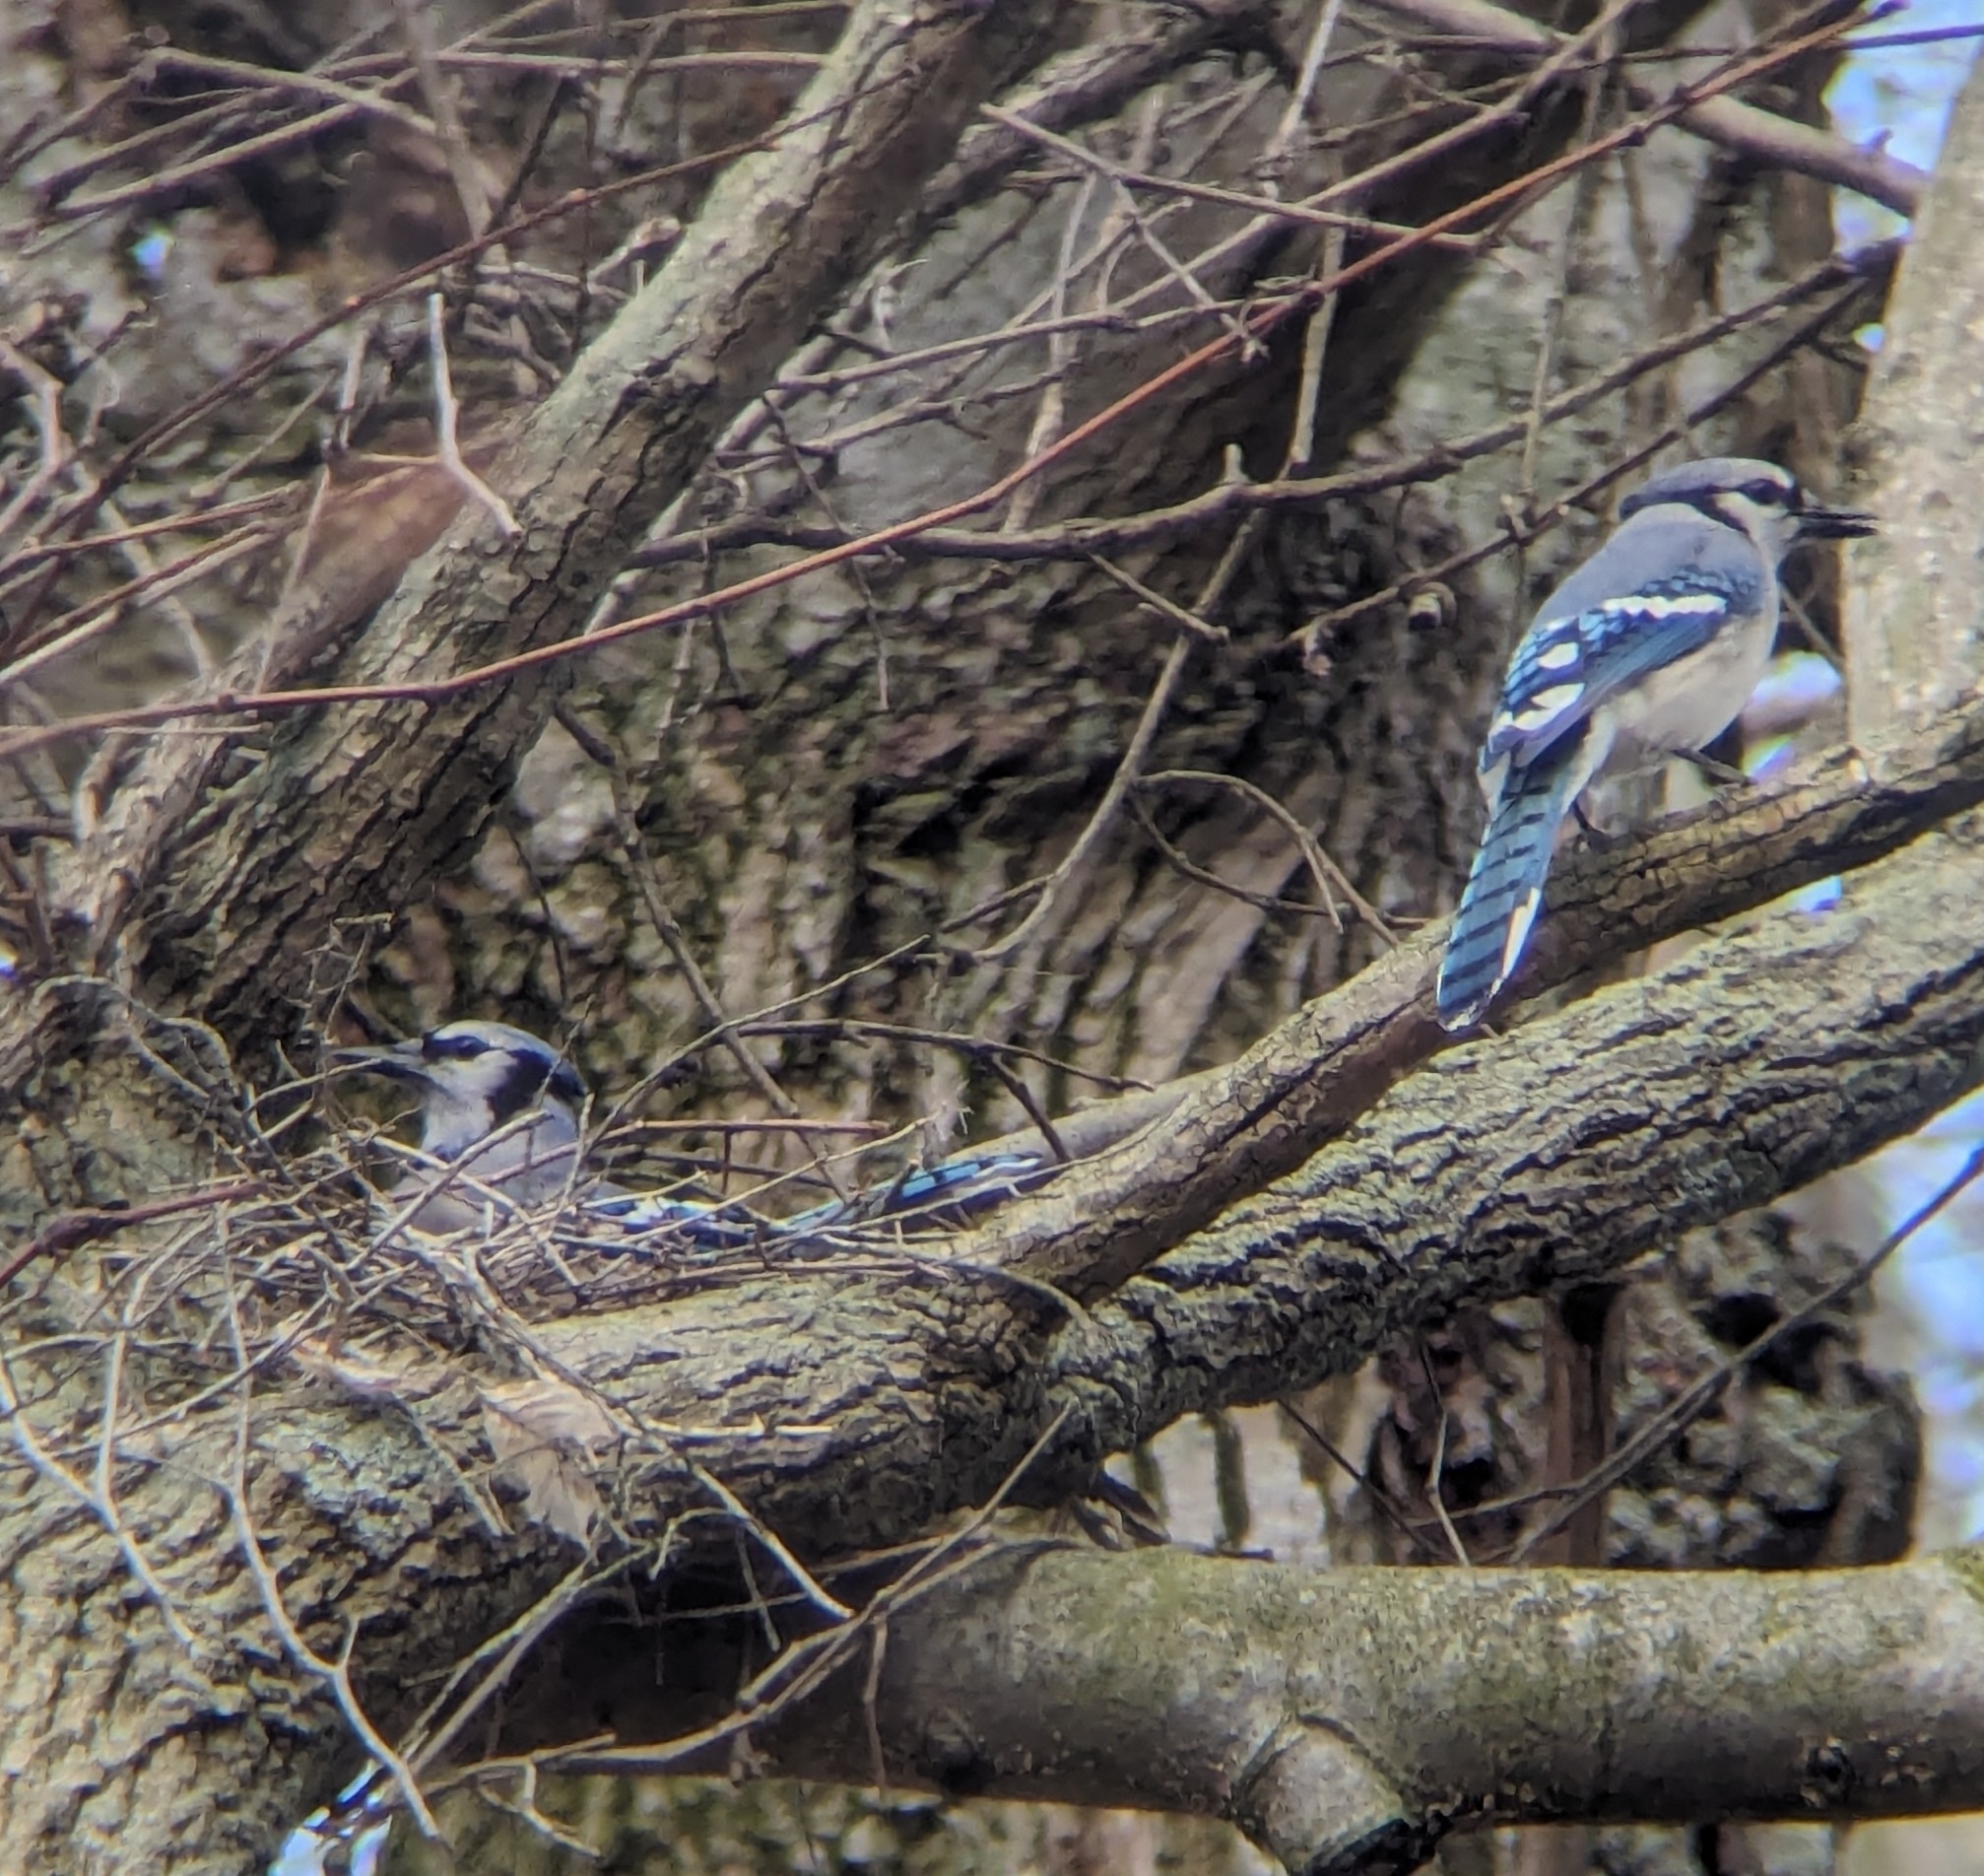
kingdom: Animalia
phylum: Chordata
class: Aves
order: Passeriformes
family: Corvidae
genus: Cyanocitta
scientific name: Cyanocitta cristata
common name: Blue jay
